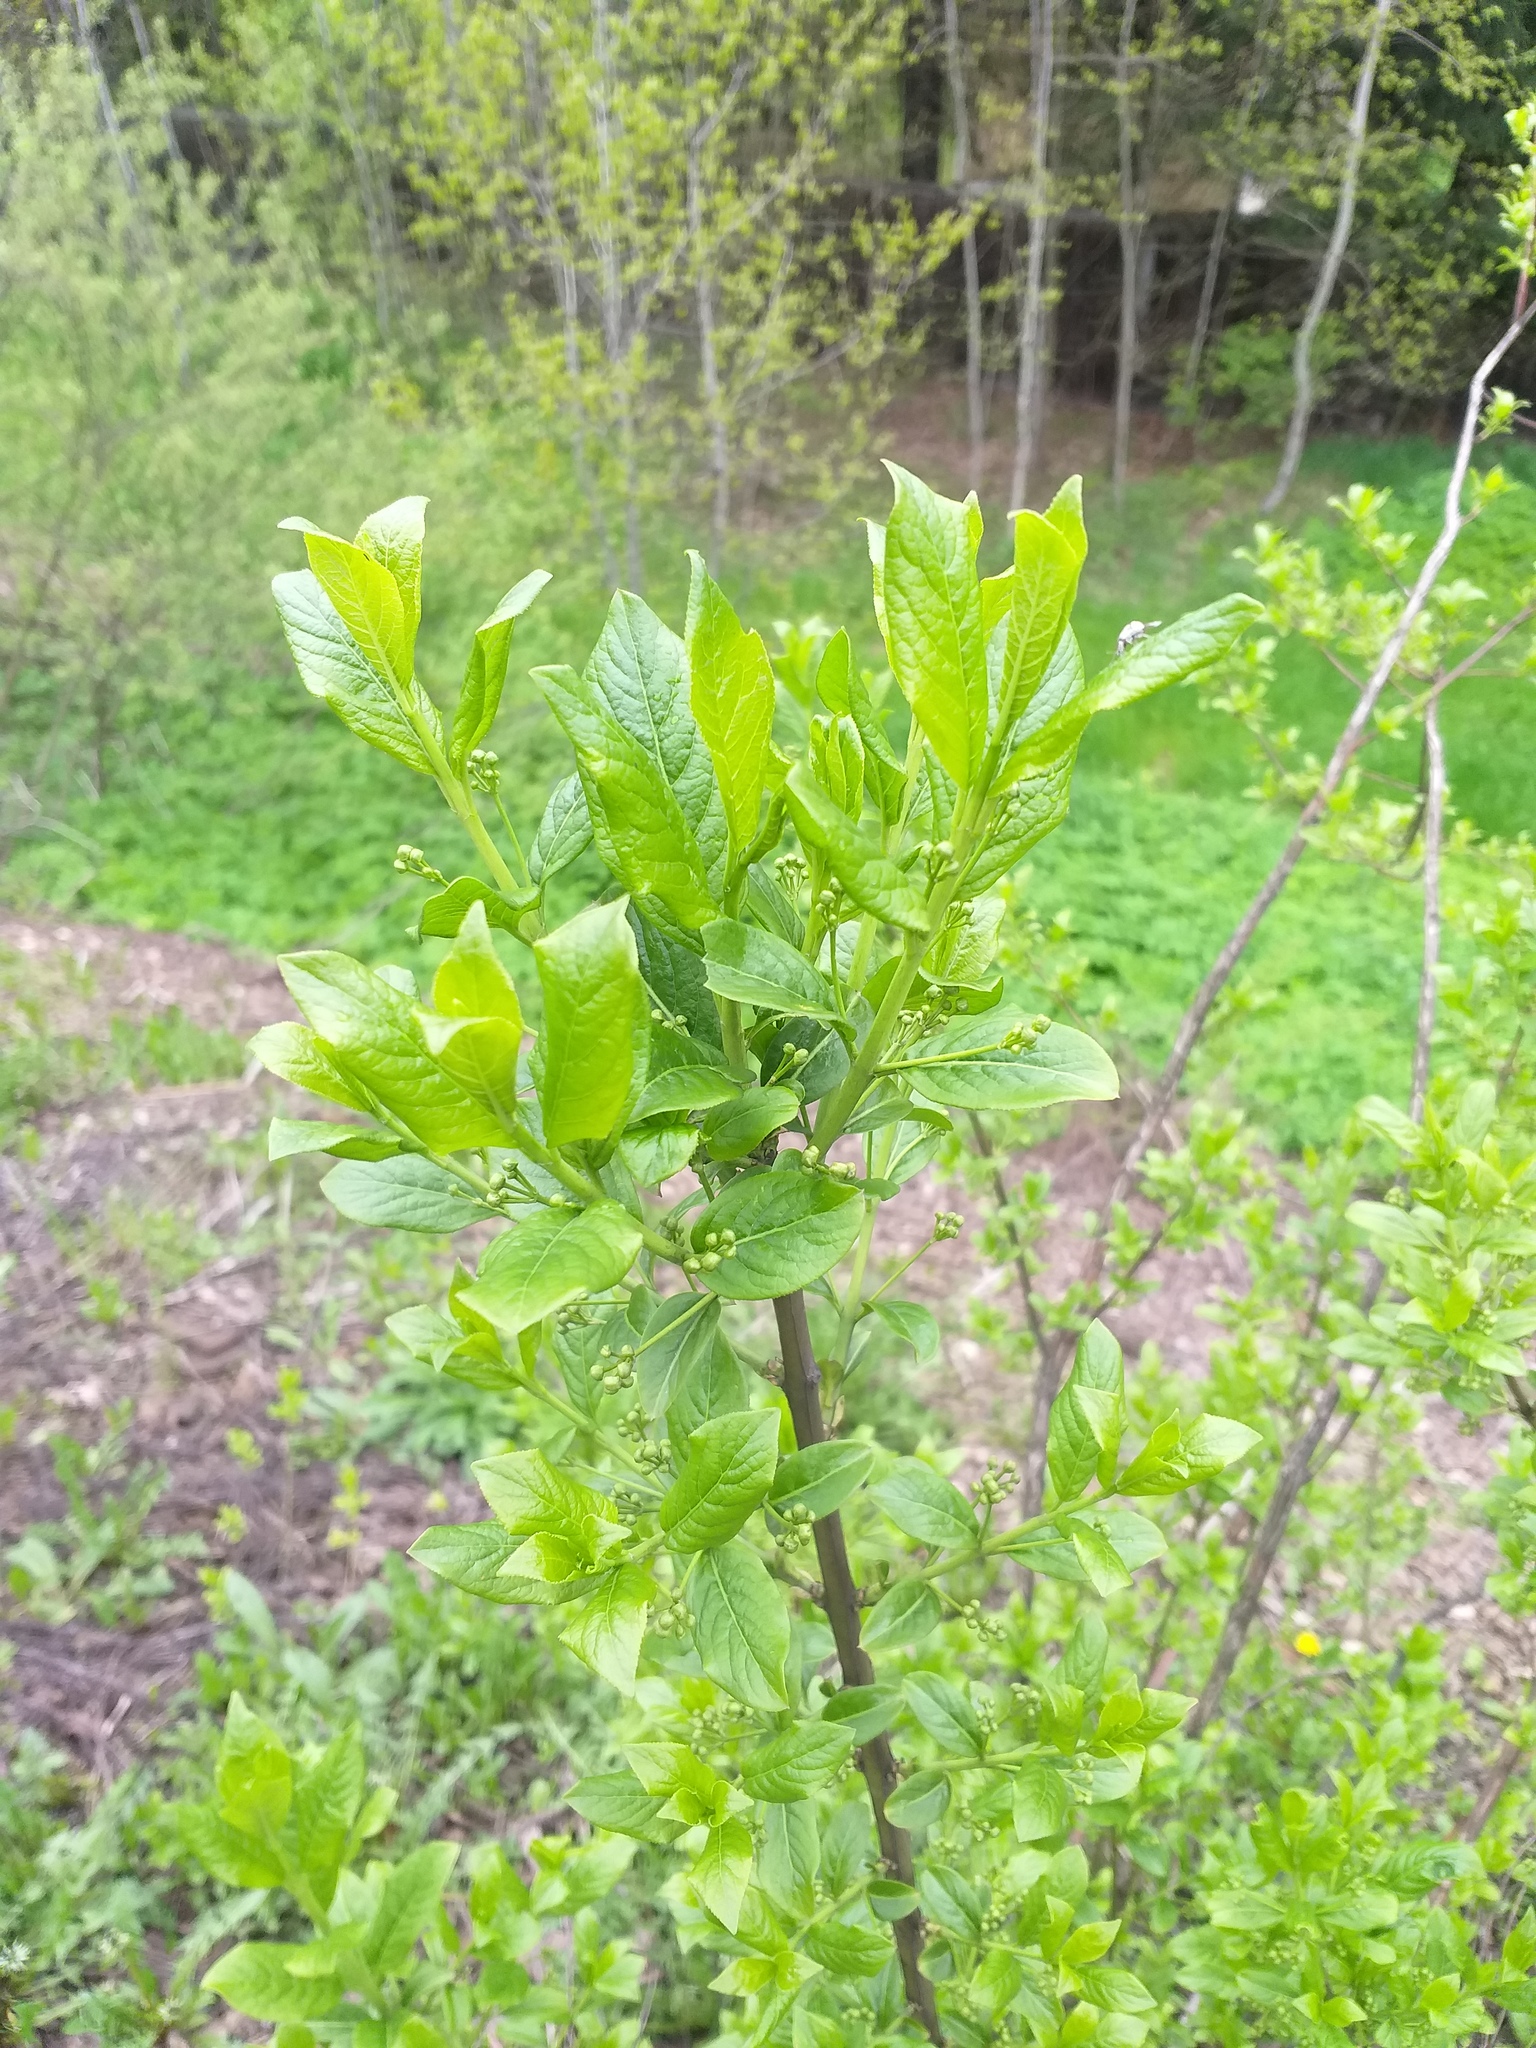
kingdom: Plantae
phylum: Tracheophyta
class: Magnoliopsida
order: Celastrales
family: Celastraceae
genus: Euonymus
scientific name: Euonymus europaeus
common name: Spindle
